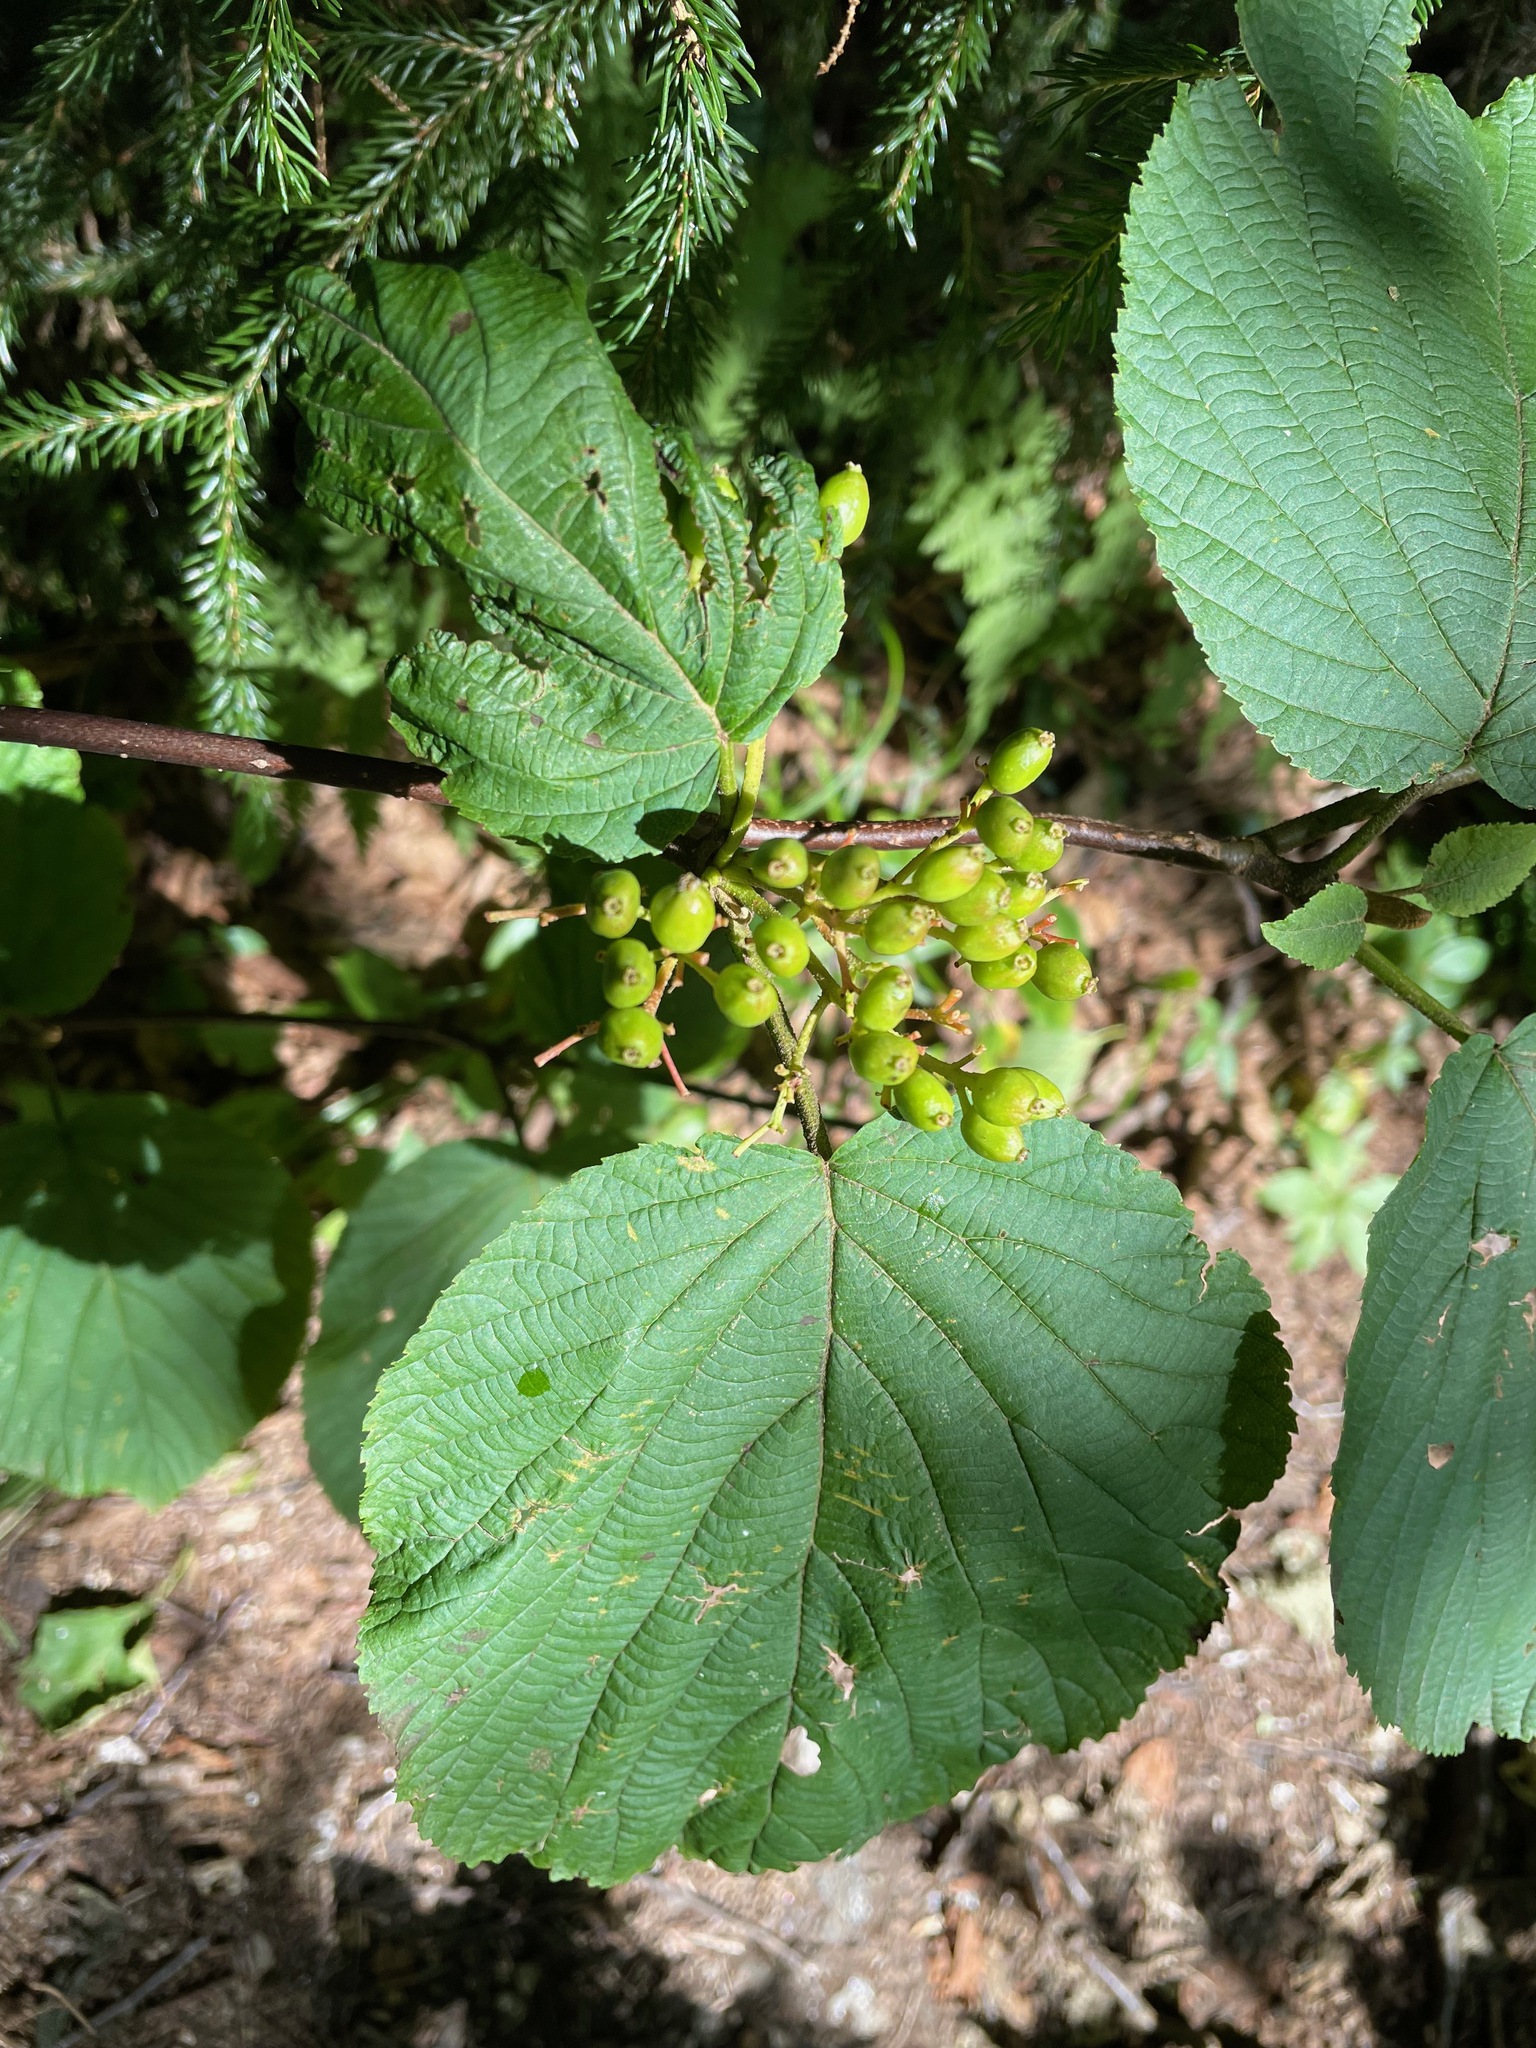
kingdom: Plantae
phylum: Tracheophyta
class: Magnoliopsida
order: Dipsacales
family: Viburnaceae
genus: Viburnum
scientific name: Viburnum lantanoides
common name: Hobblebush
